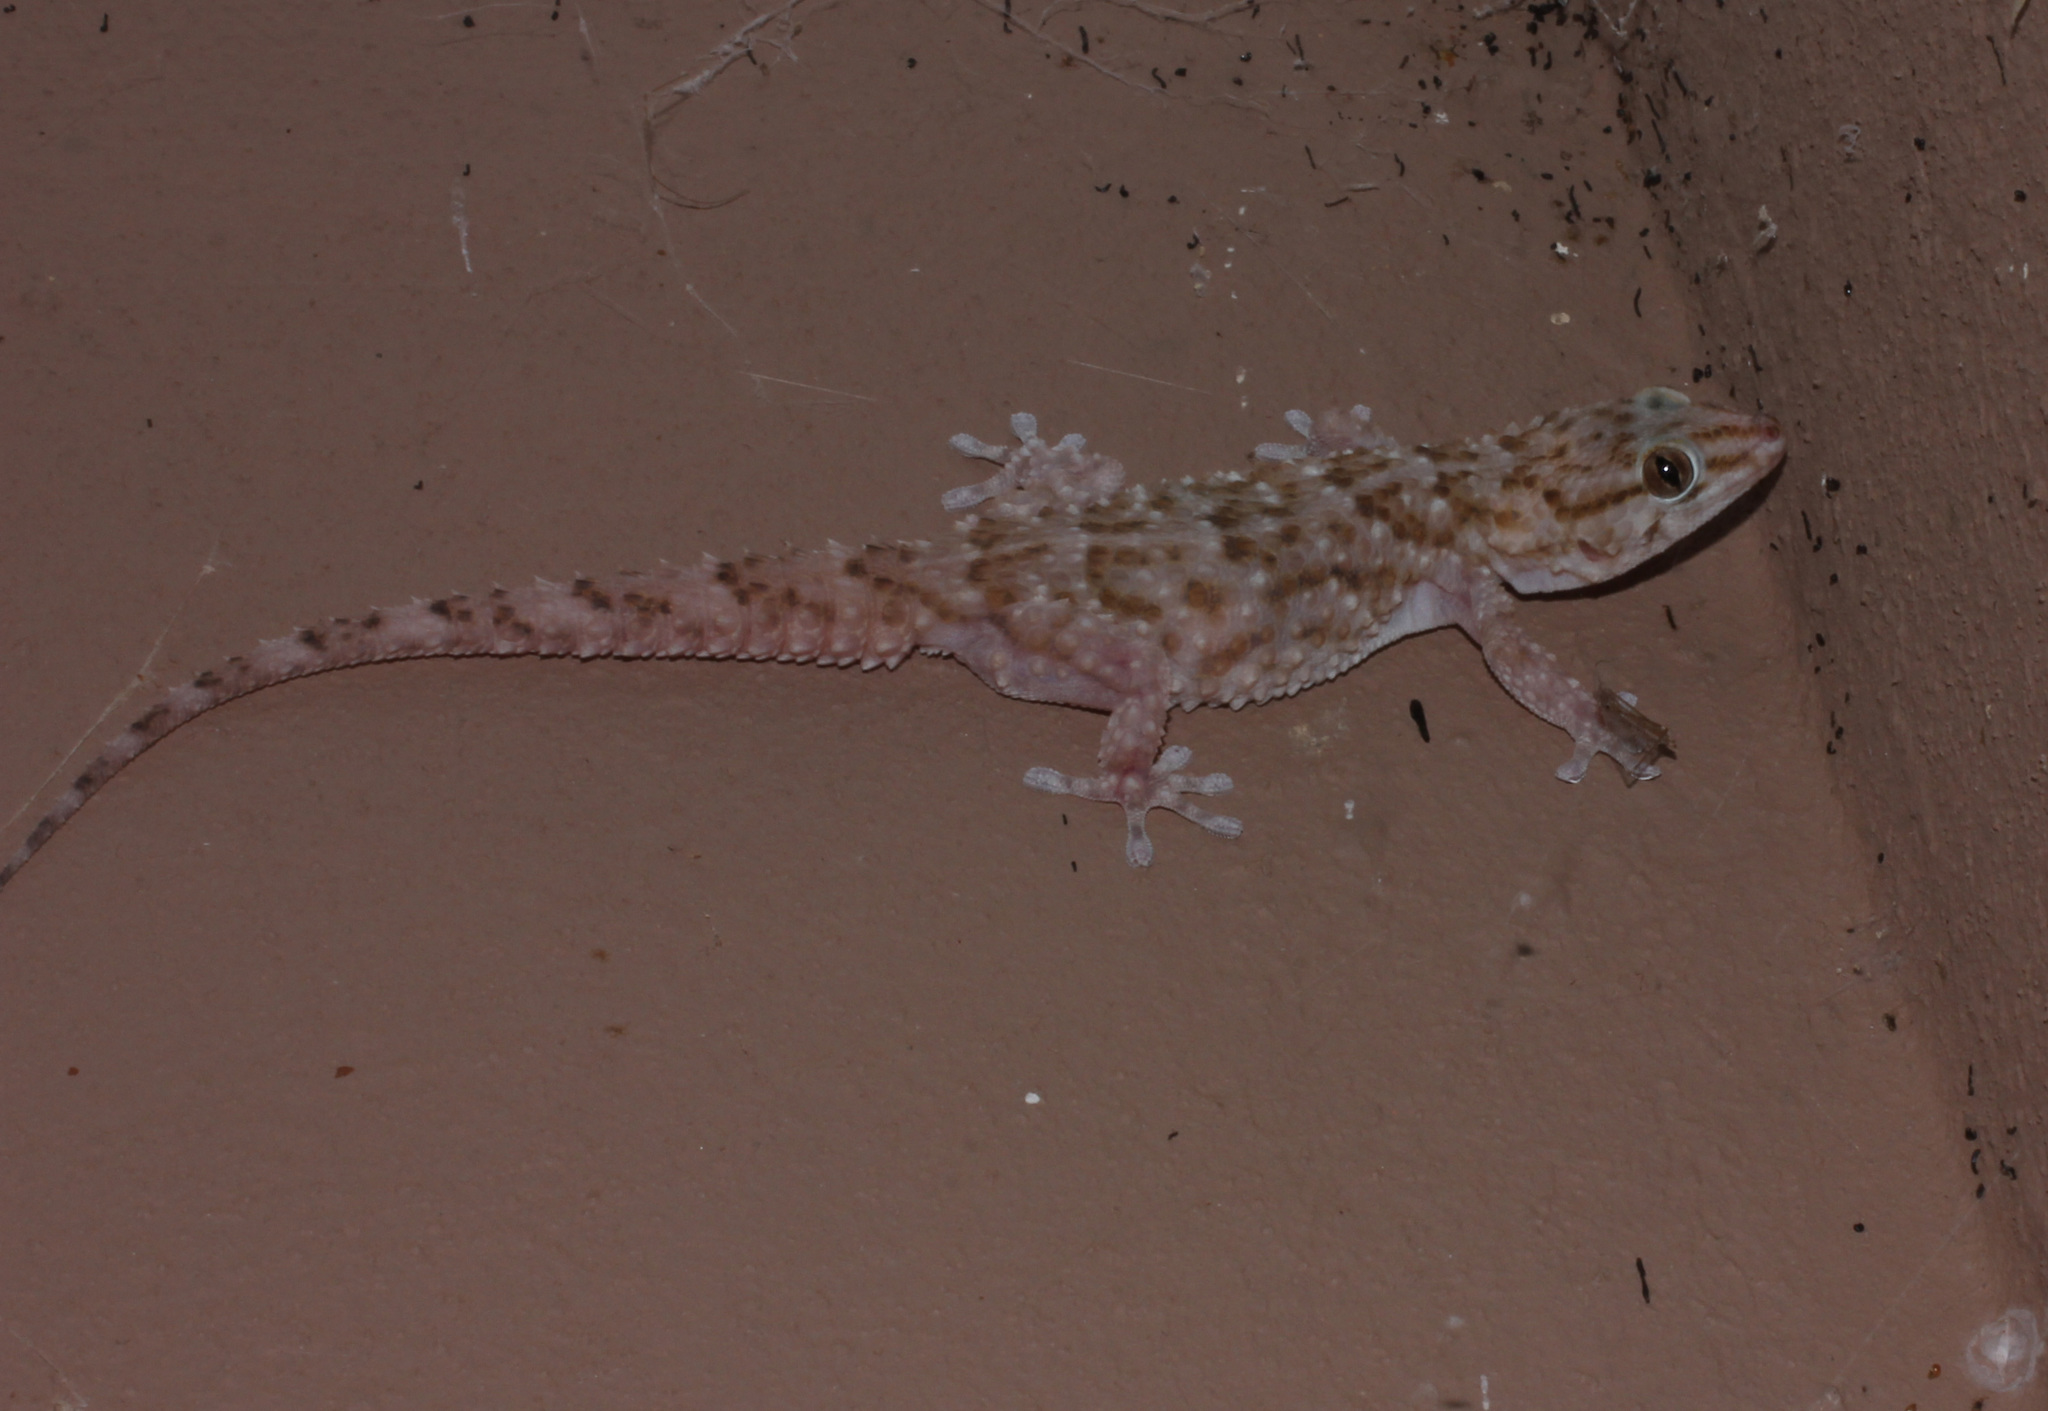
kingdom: Animalia
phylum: Chordata
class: Squamata
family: Gekkonidae
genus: Chondrodactylus
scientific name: Chondrodactylus bibronii
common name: Bibron's gecko
